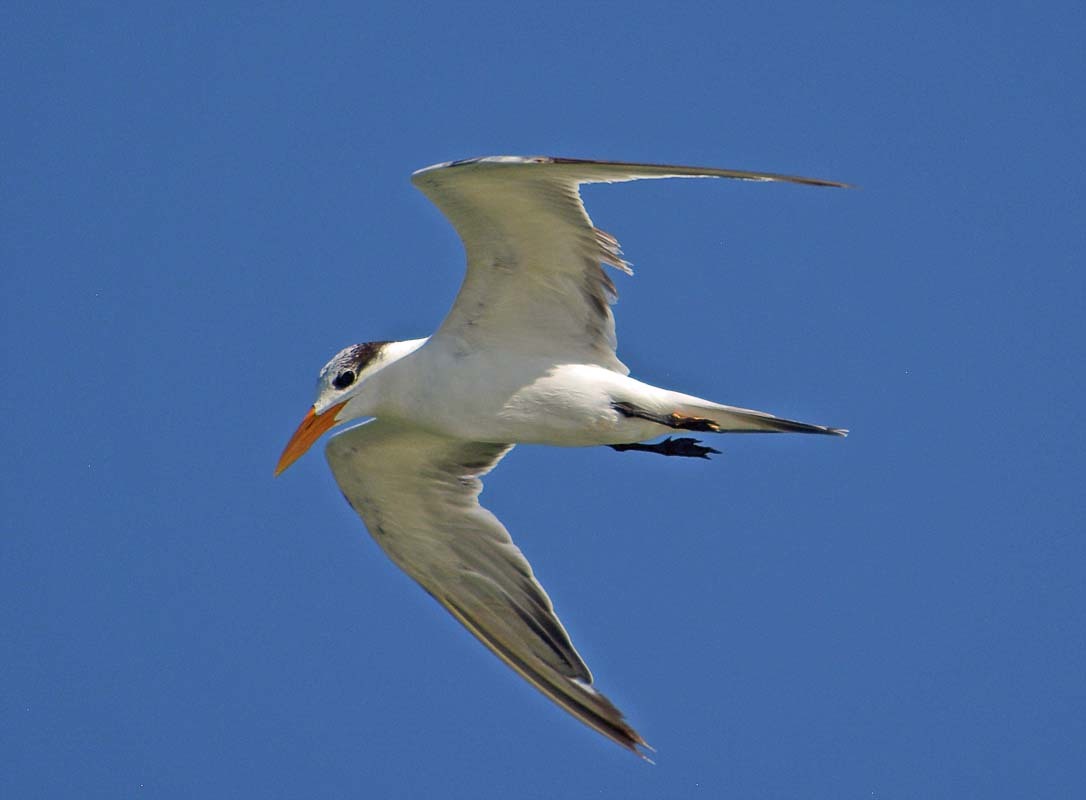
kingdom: Animalia
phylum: Chordata
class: Aves
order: Charadriiformes
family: Laridae
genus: Thalasseus
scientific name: Thalasseus maximus
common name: Royal tern
